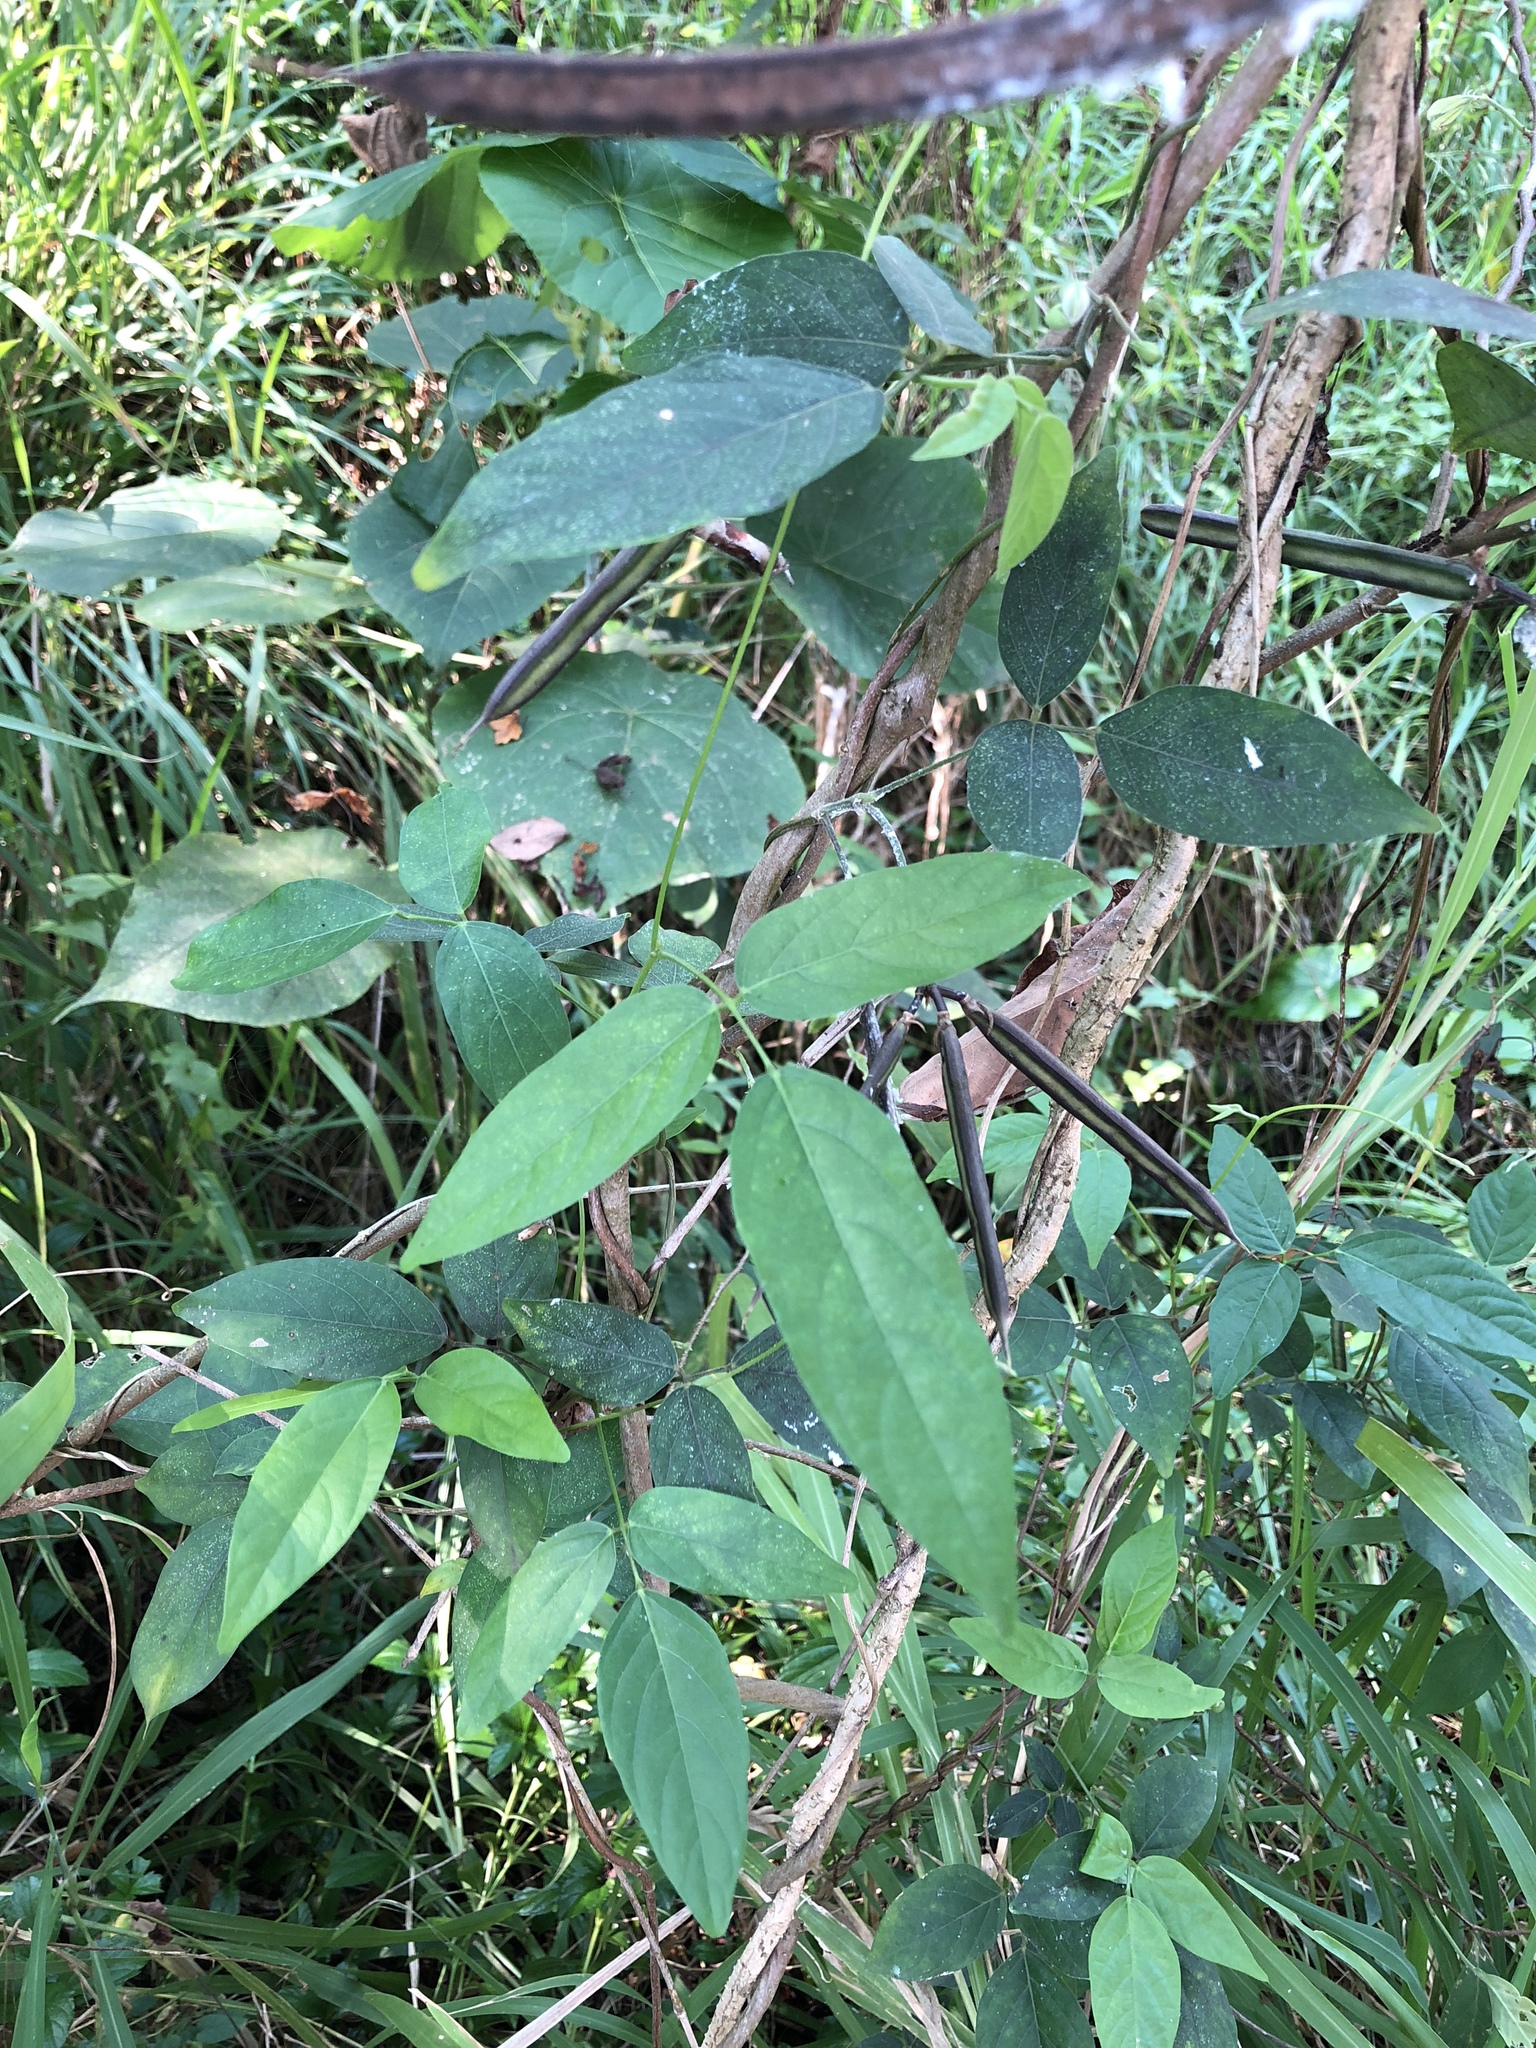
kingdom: Plantae
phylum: Tracheophyta
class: Magnoliopsida
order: Fabales
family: Fabaceae
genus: Centrosema
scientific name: Centrosema pubescens
